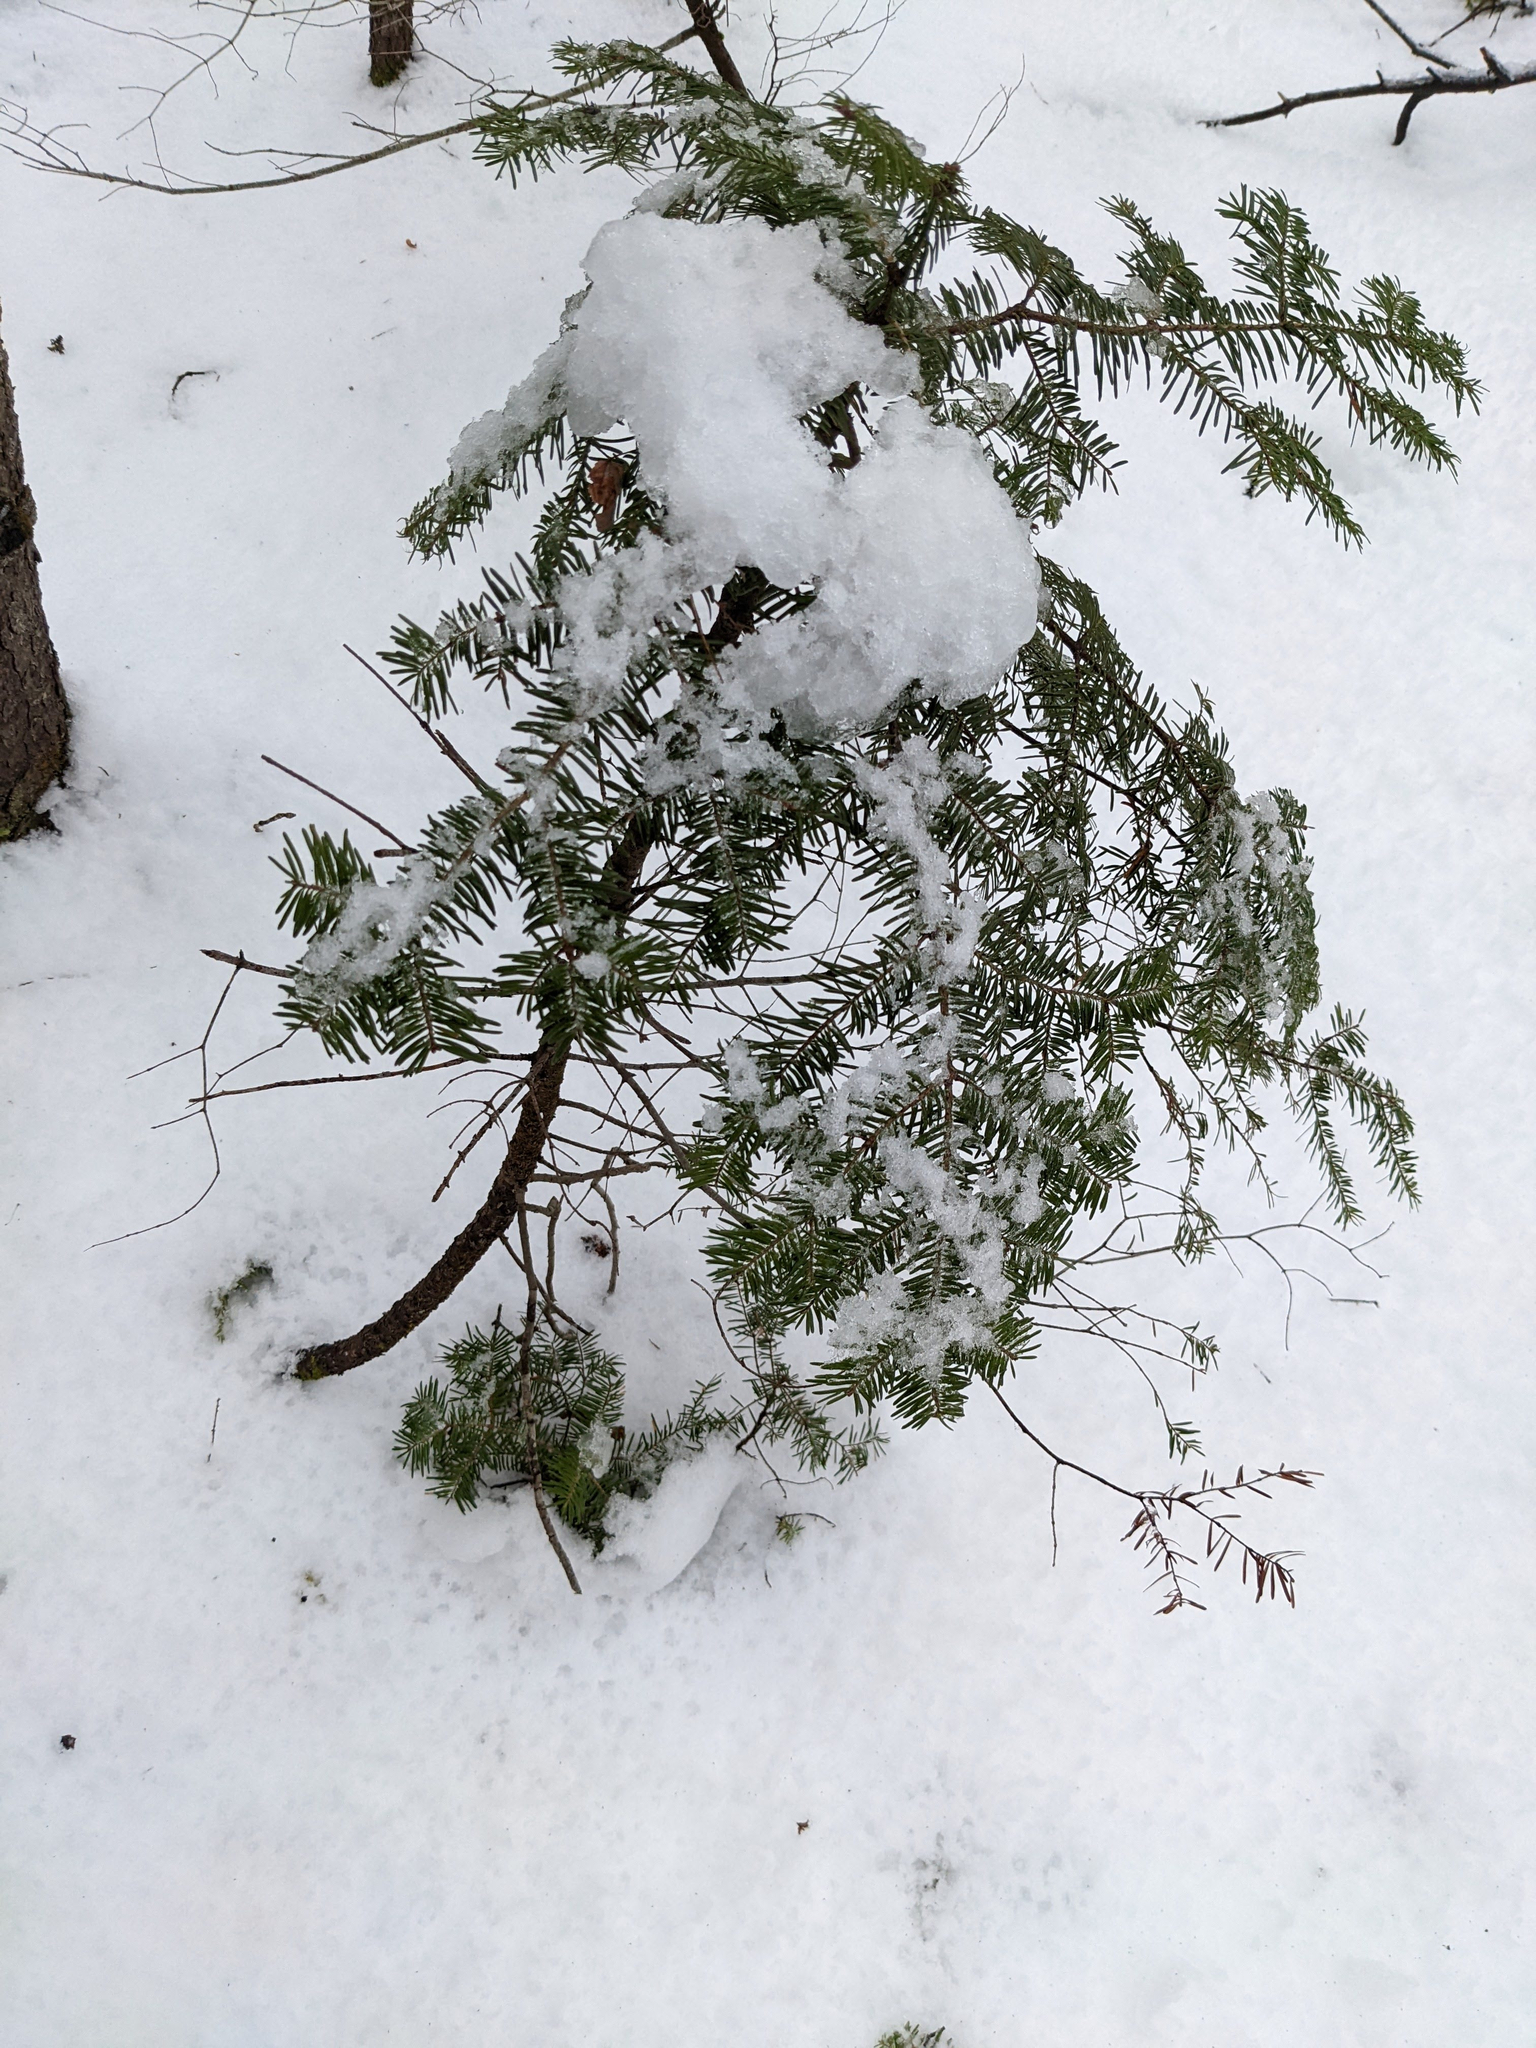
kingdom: Plantae
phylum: Tracheophyta
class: Pinopsida
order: Pinales
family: Pinaceae
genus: Abies
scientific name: Abies balsamea
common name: Balsam fir
